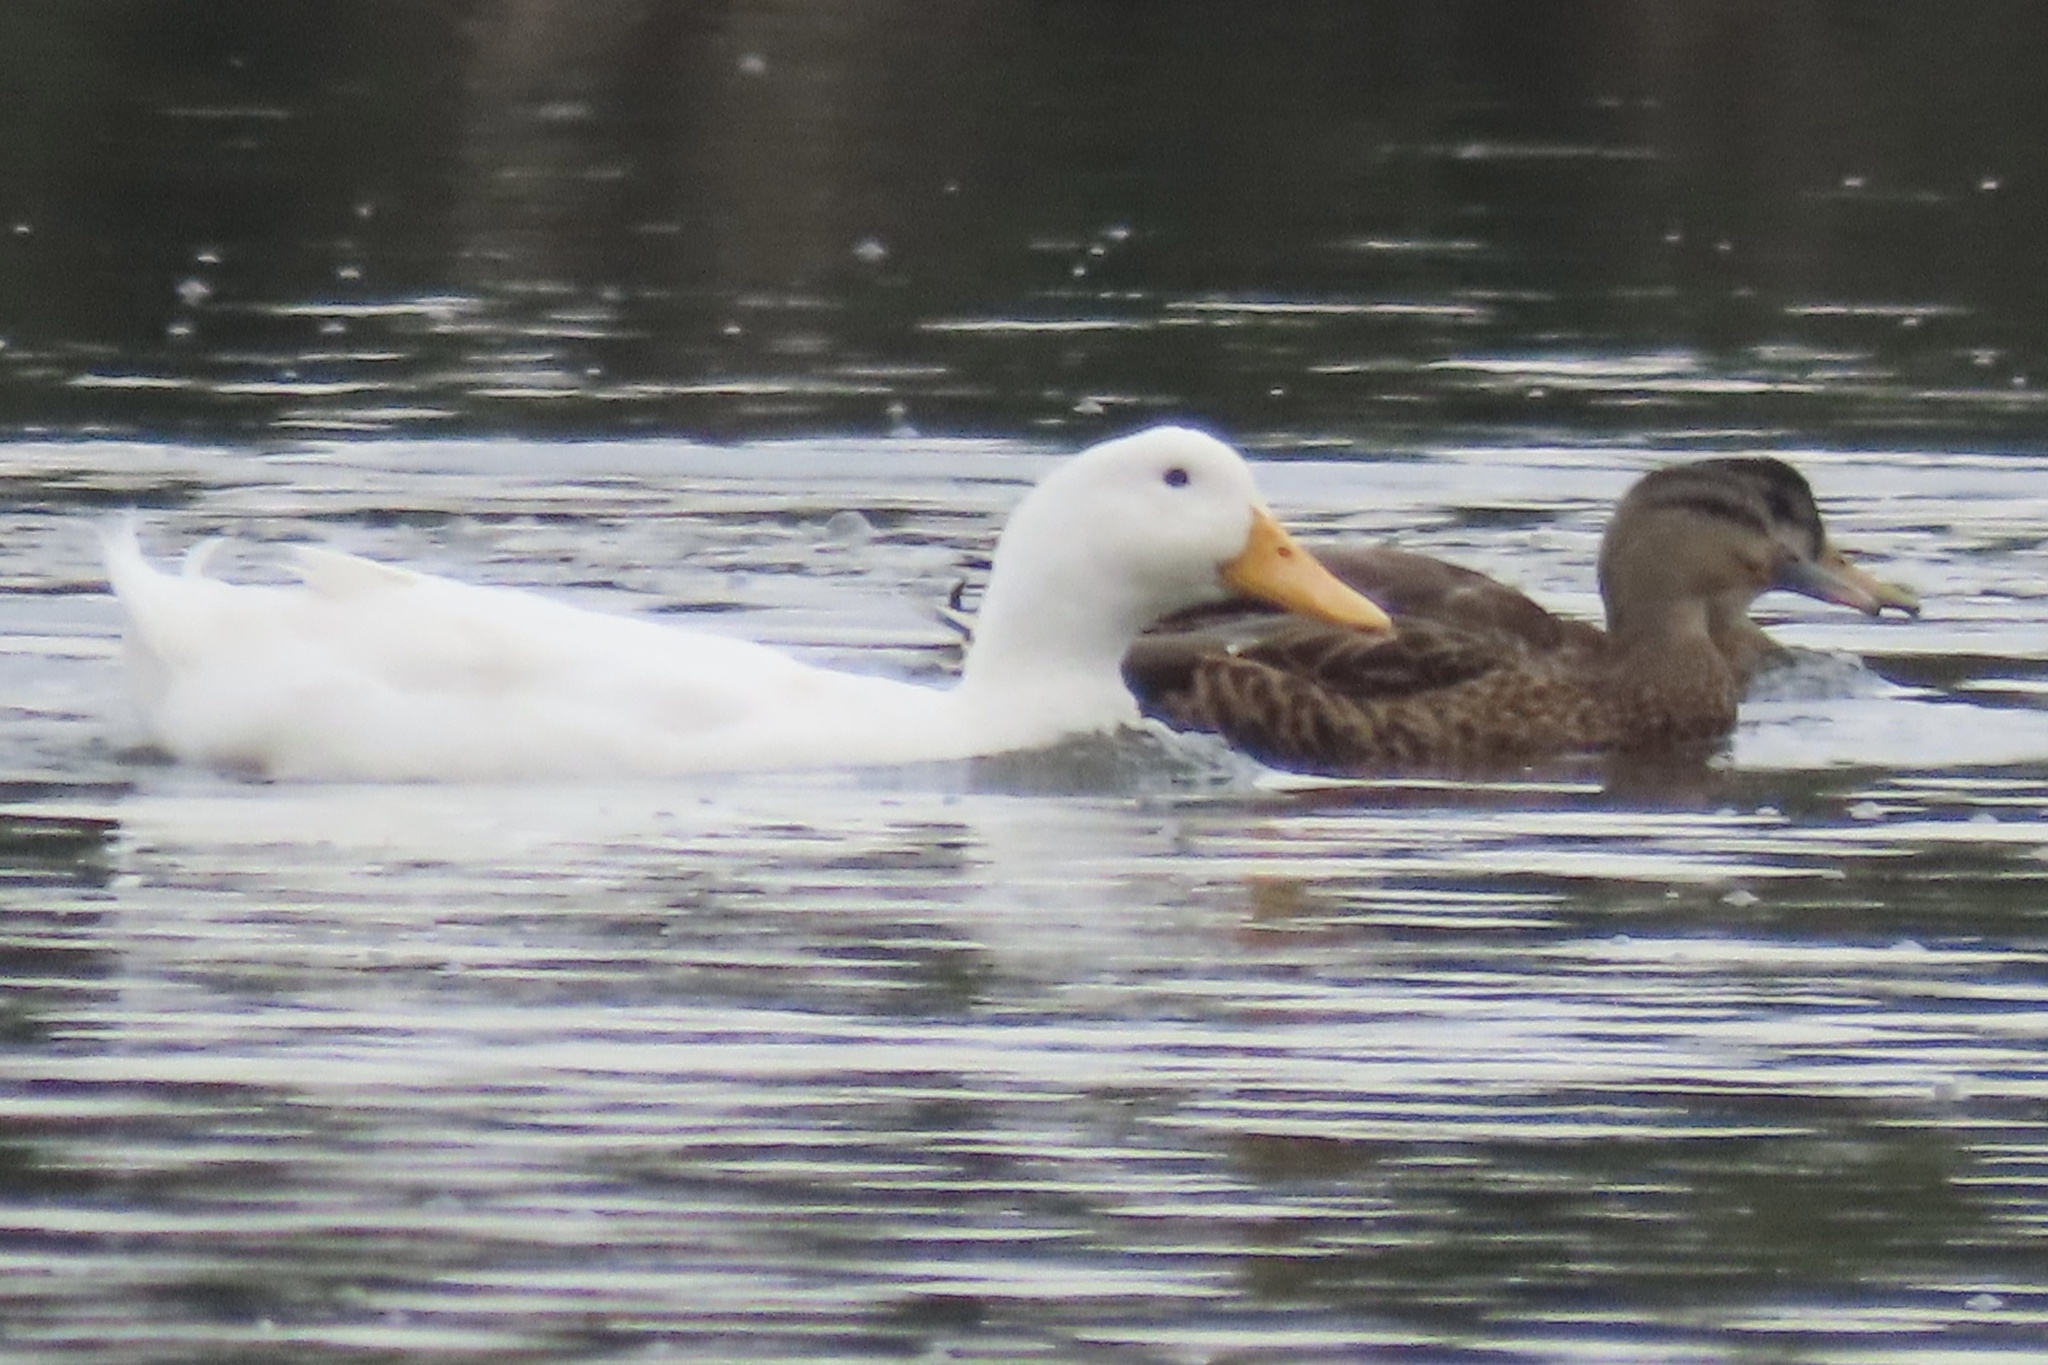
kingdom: Animalia
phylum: Chordata
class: Aves
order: Anseriformes
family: Anatidae
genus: Anas
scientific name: Anas platyrhynchos
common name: Mallard
